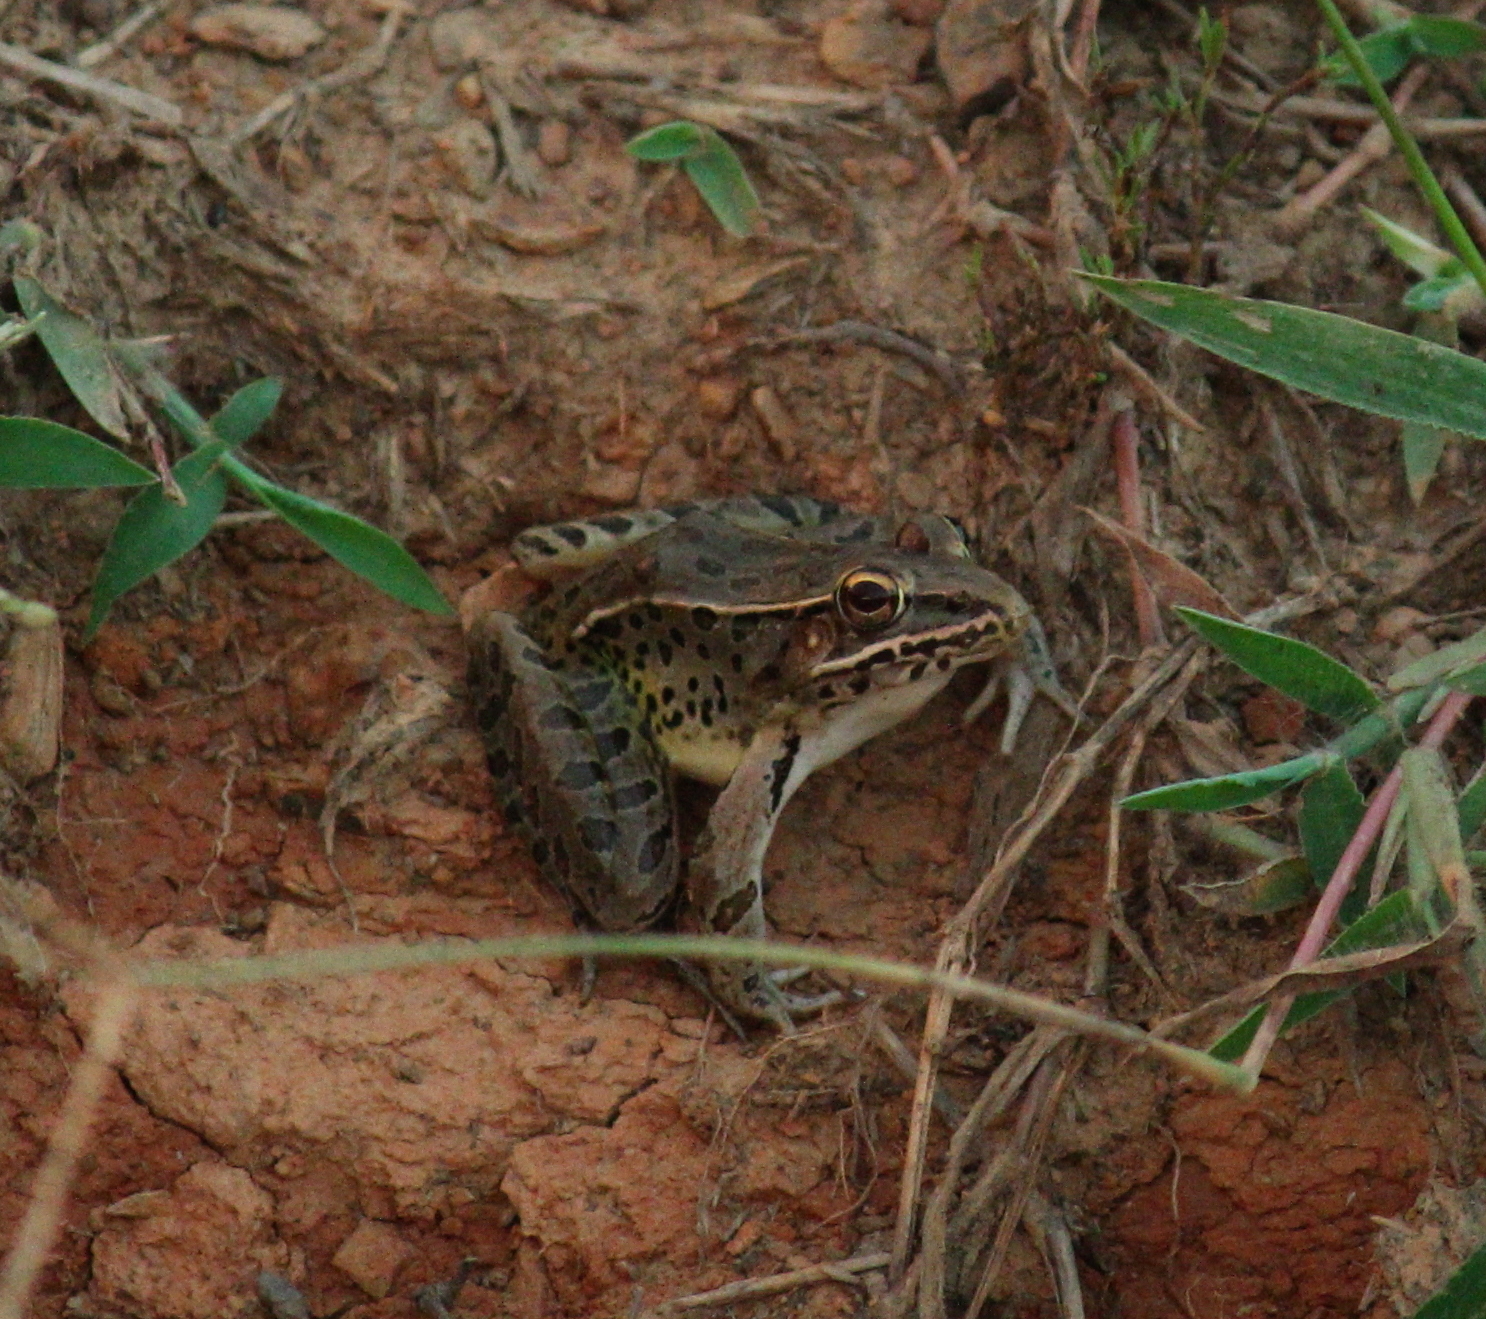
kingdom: Animalia
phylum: Chordata
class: Amphibia
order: Anura
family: Ranidae
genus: Lithobates
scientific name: Lithobates sphenocephalus
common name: Southern leopard frog
